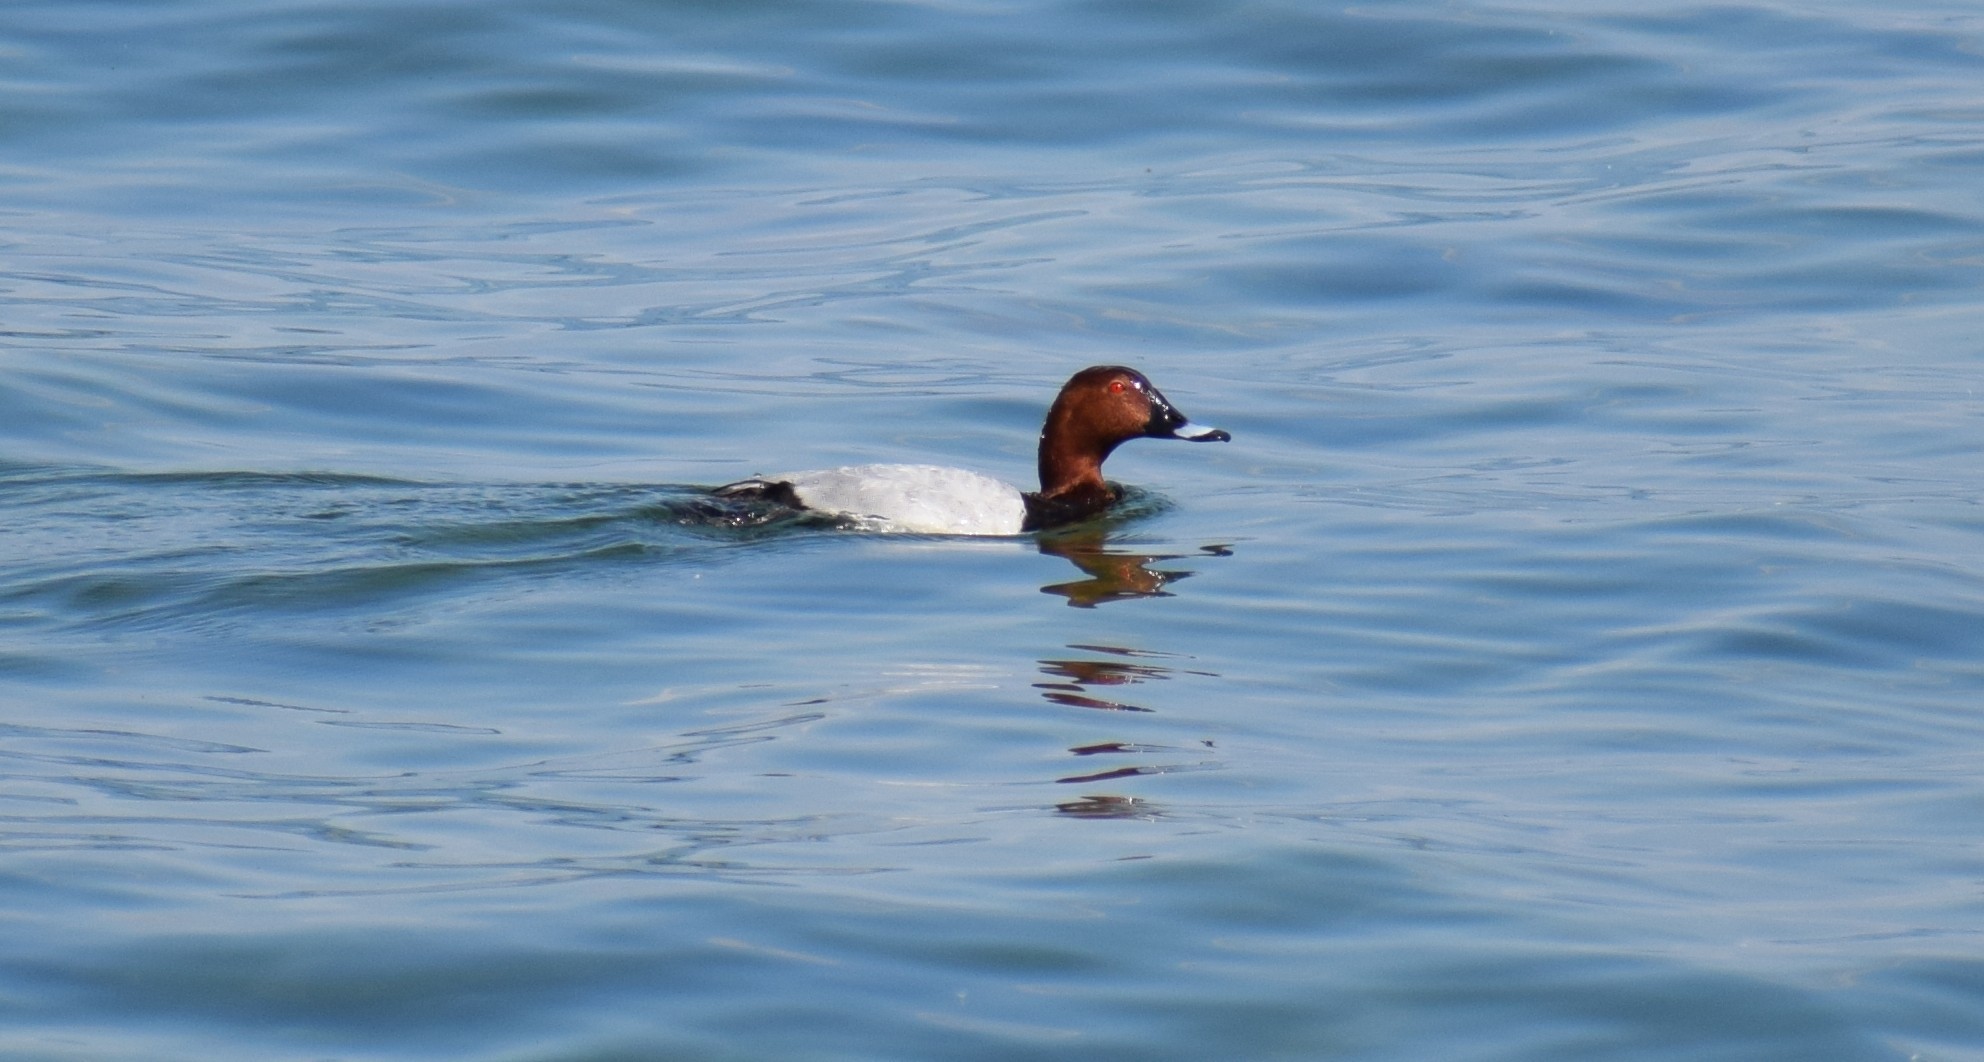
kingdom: Animalia
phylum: Chordata
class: Aves
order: Anseriformes
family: Anatidae
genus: Aythya
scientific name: Aythya ferina
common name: Common pochard
